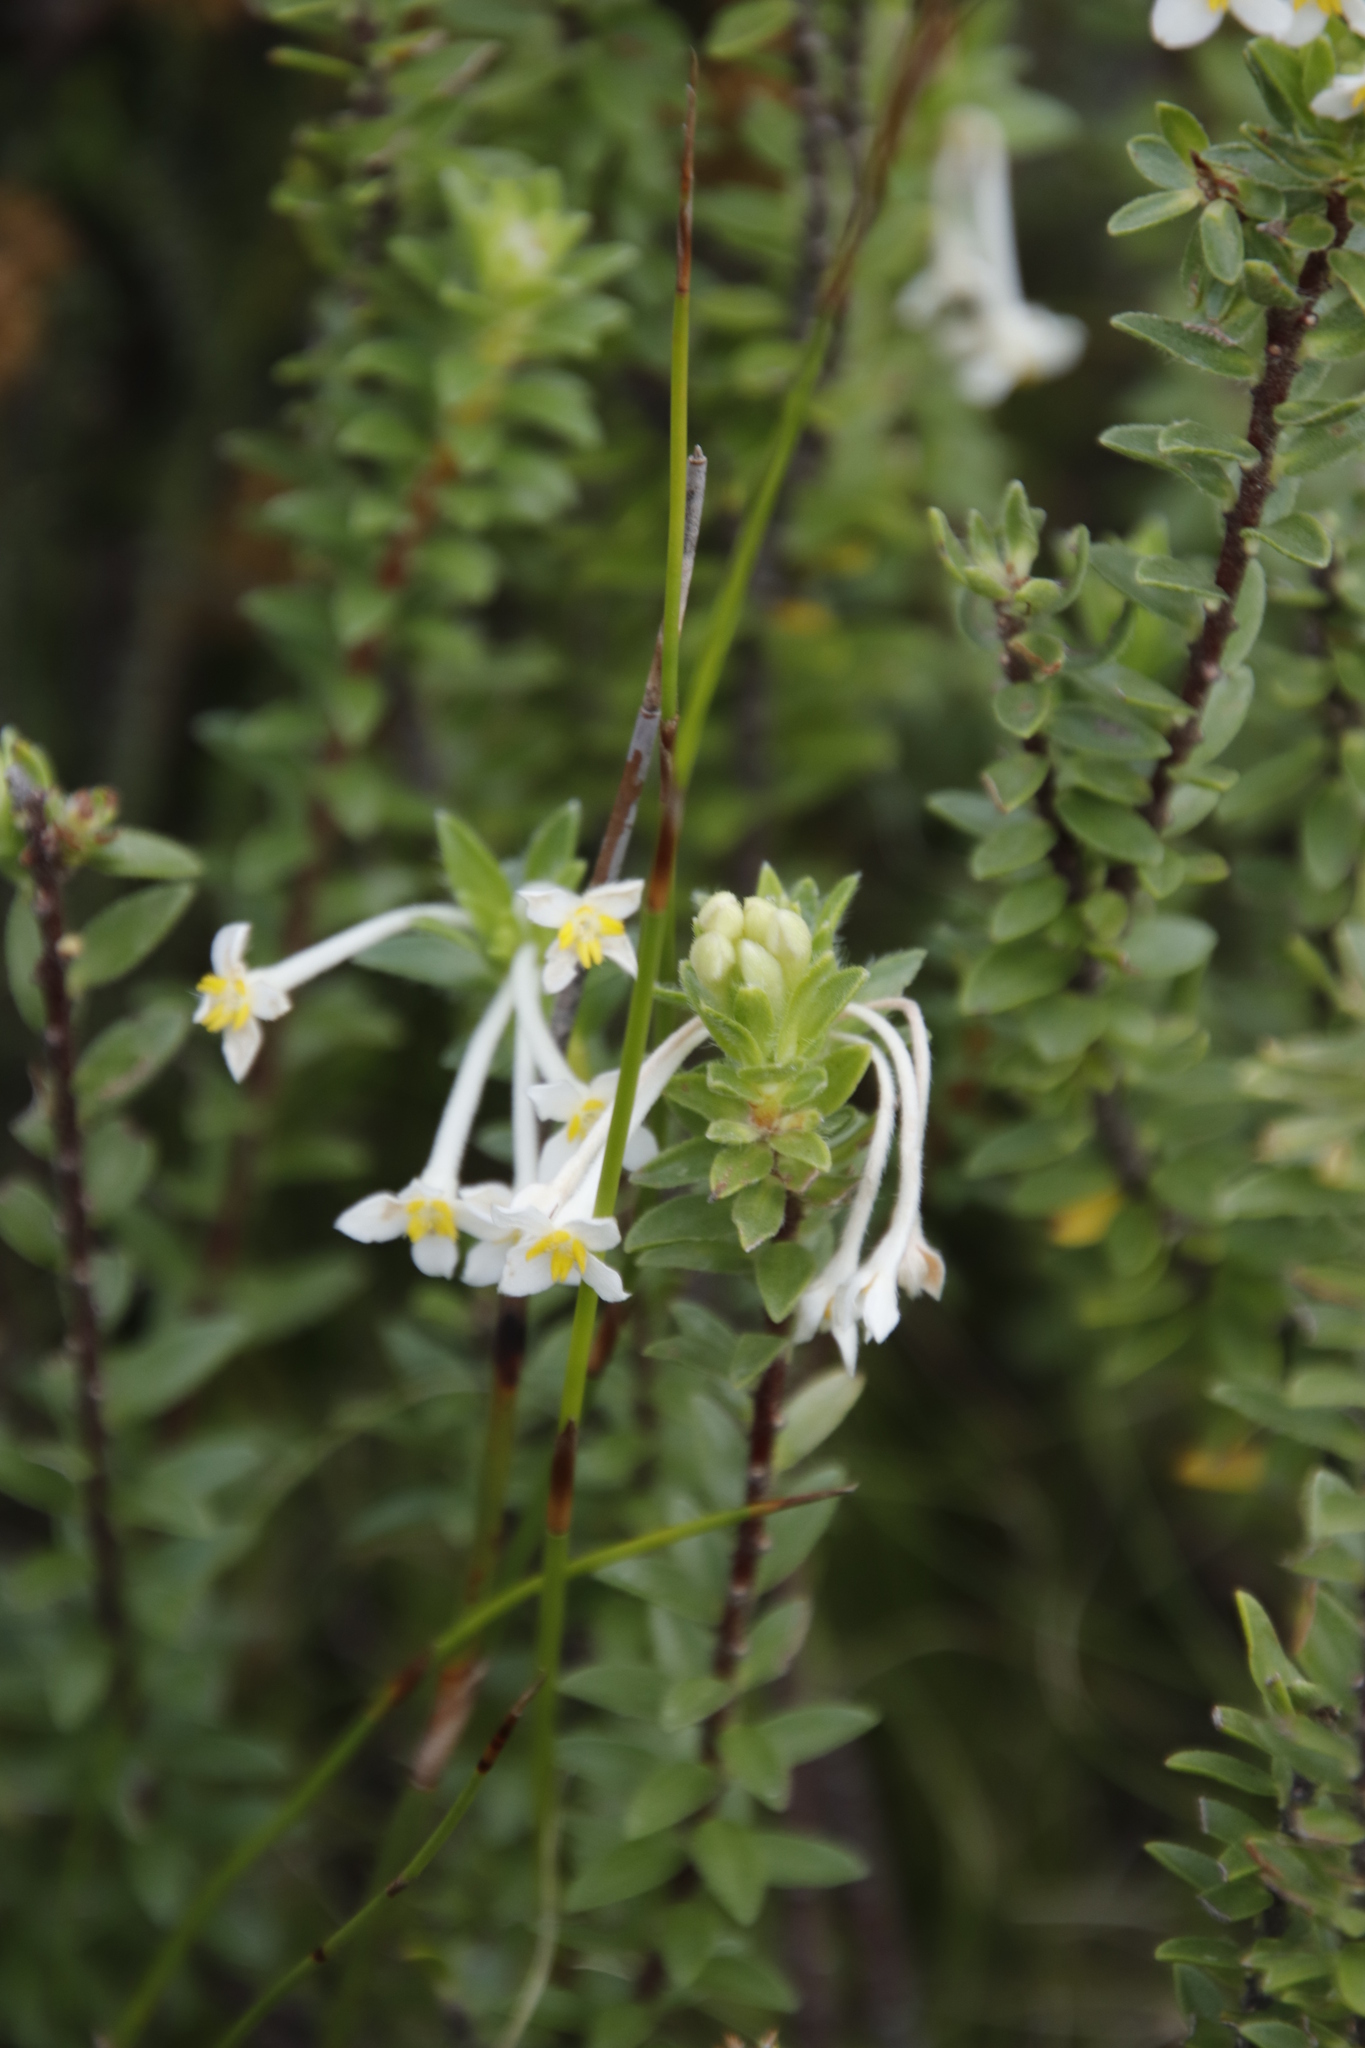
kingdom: Plantae
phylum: Tracheophyta
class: Magnoliopsida
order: Malvales
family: Thymelaeaceae
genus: Gnidia
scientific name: Gnidia tomentosa
